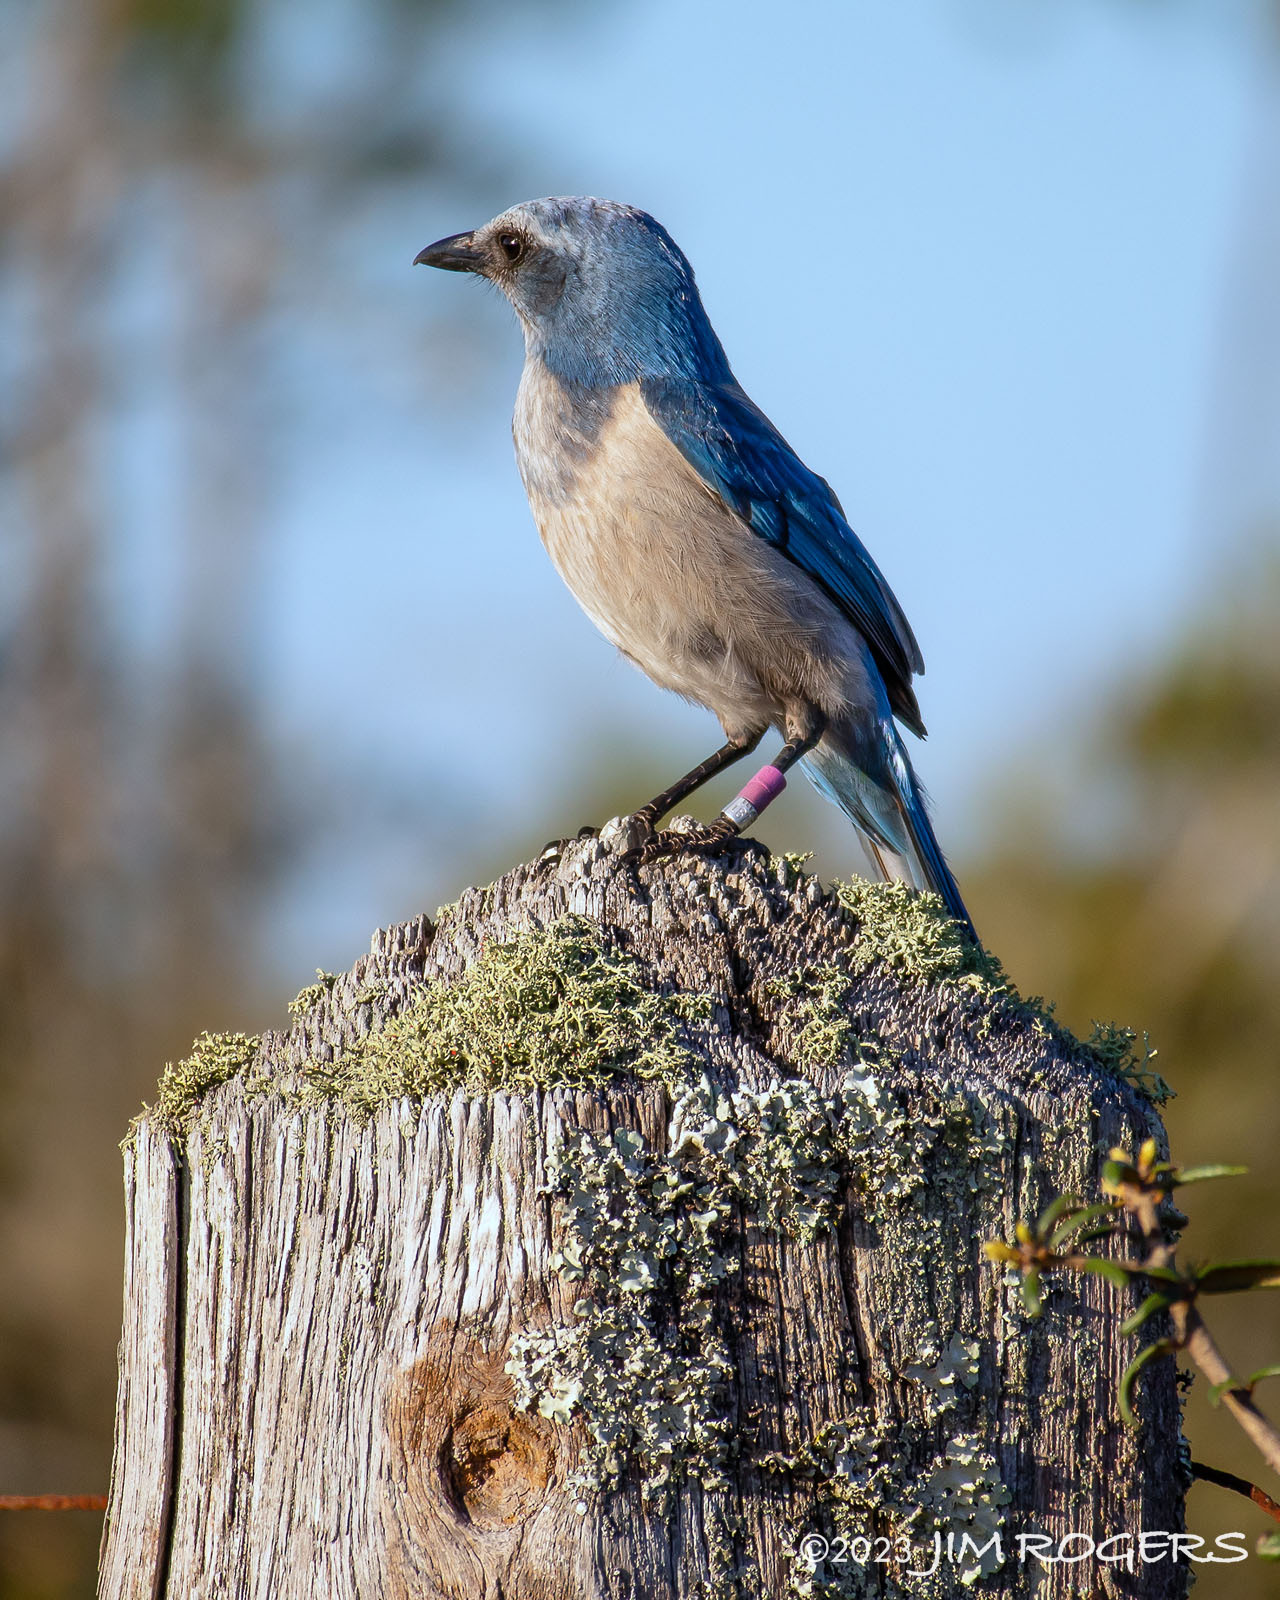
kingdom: Animalia
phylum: Chordata
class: Aves
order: Passeriformes
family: Corvidae
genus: Aphelocoma
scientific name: Aphelocoma coerulescens
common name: Florida scrub jay
